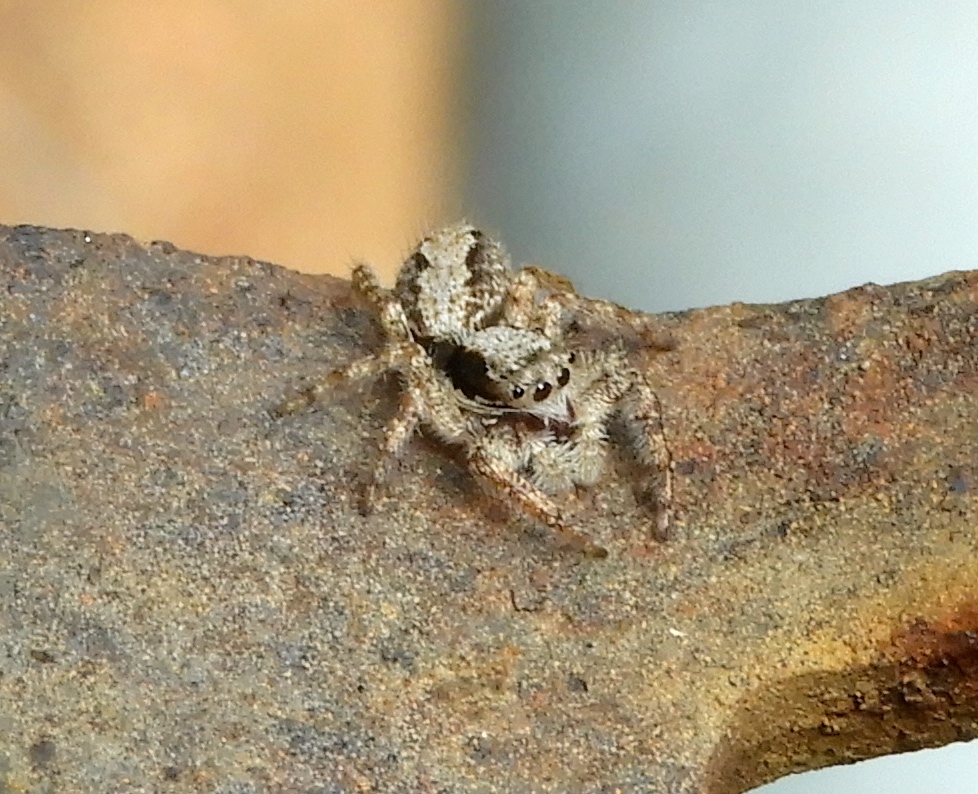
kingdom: Animalia
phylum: Arthropoda
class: Arachnida
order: Araneae
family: Salticidae
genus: Platycryptus
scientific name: Platycryptus magnus
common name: Jumping spiders
